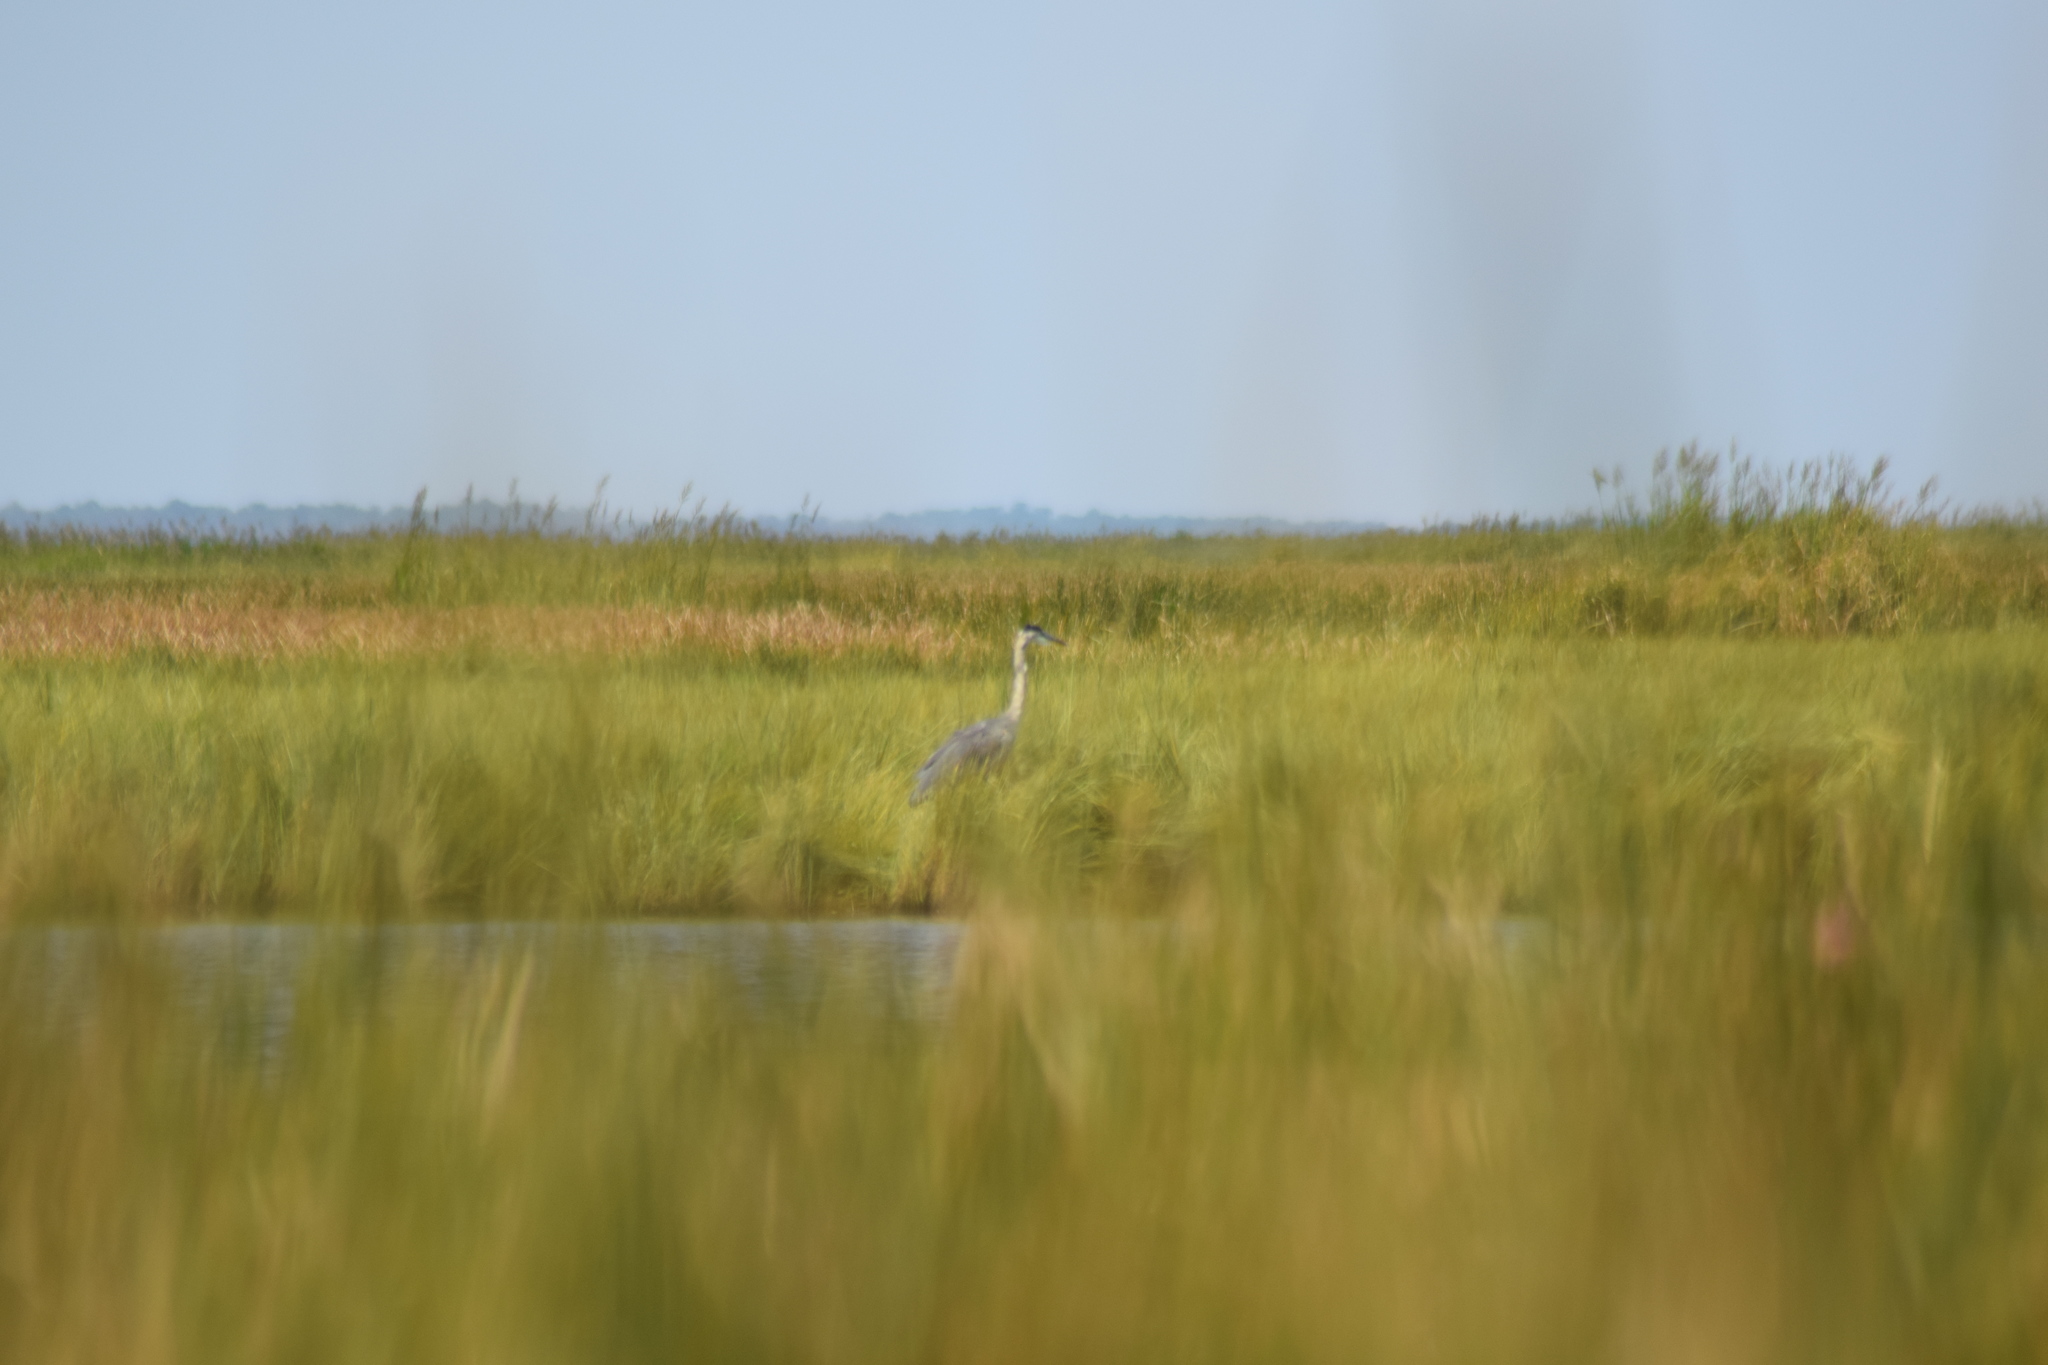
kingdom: Animalia
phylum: Chordata
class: Aves
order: Pelecaniformes
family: Ardeidae
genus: Ardea
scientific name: Ardea herodias
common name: Great blue heron
